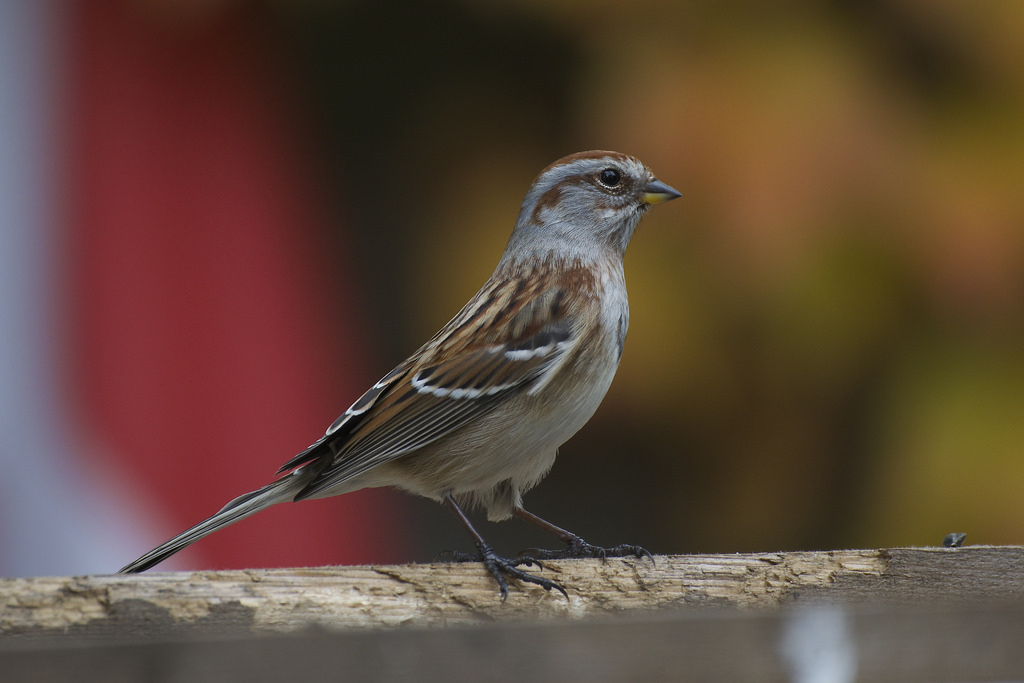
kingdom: Animalia
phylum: Chordata
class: Aves
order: Passeriformes
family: Passerellidae
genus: Spizelloides
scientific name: Spizelloides arborea
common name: American tree sparrow
